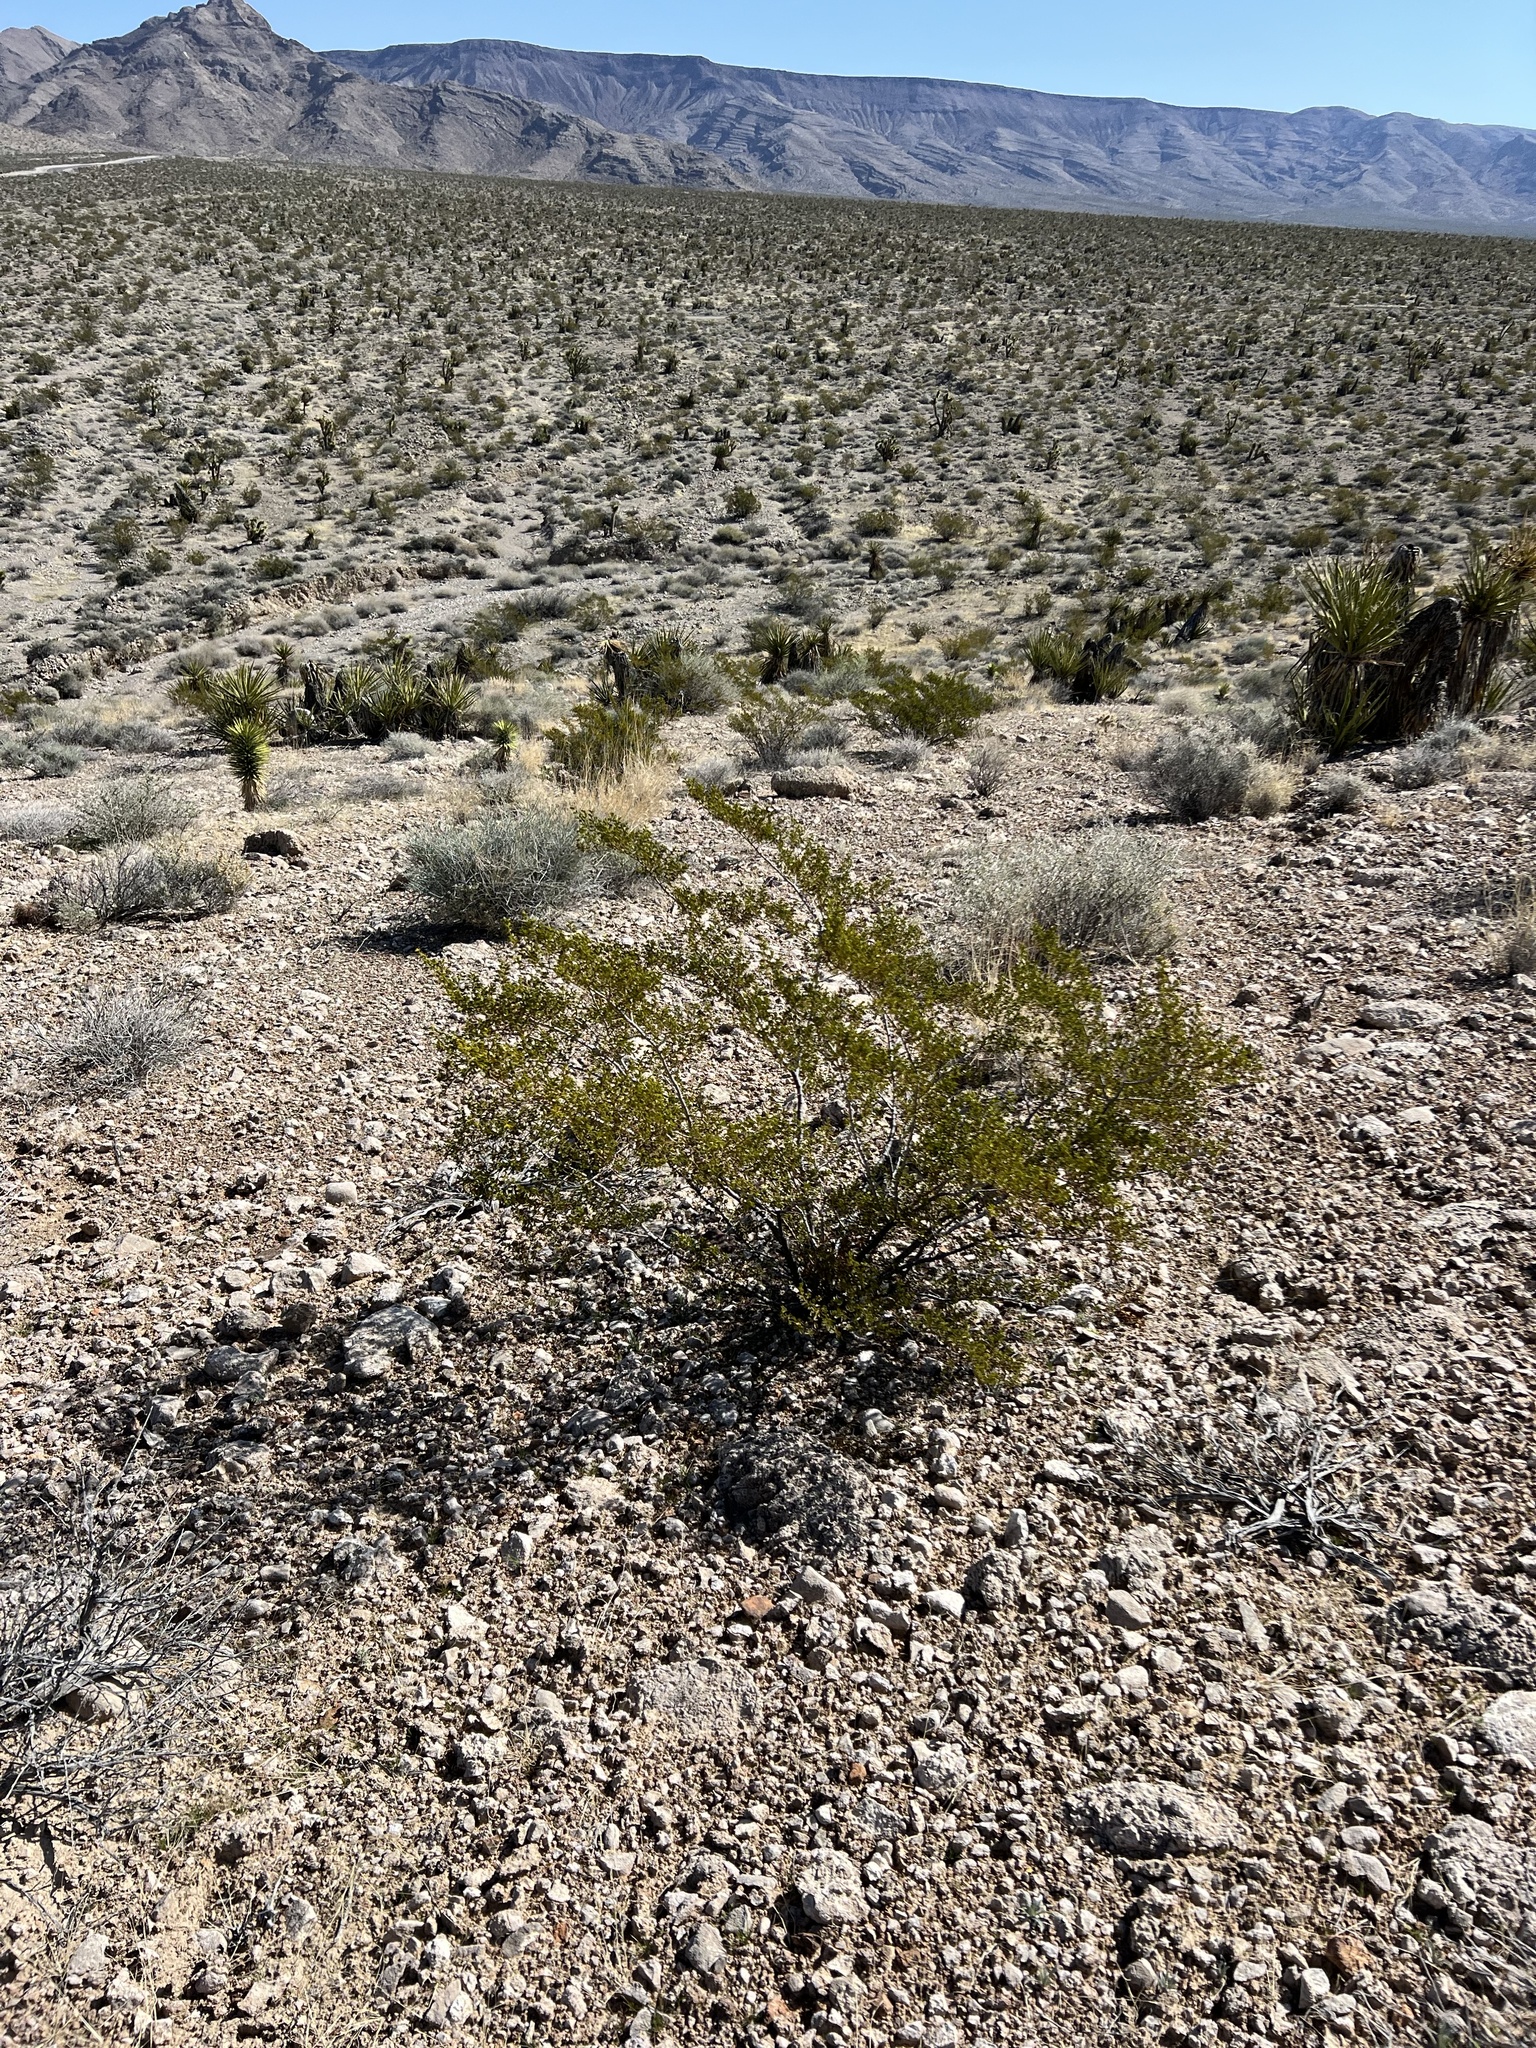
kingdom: Plantae
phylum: Tracheophyta
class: Magnoliopsida
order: Zygophyllales
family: Zygophyllaceae
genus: Larrea
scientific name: Larrea tridentata
